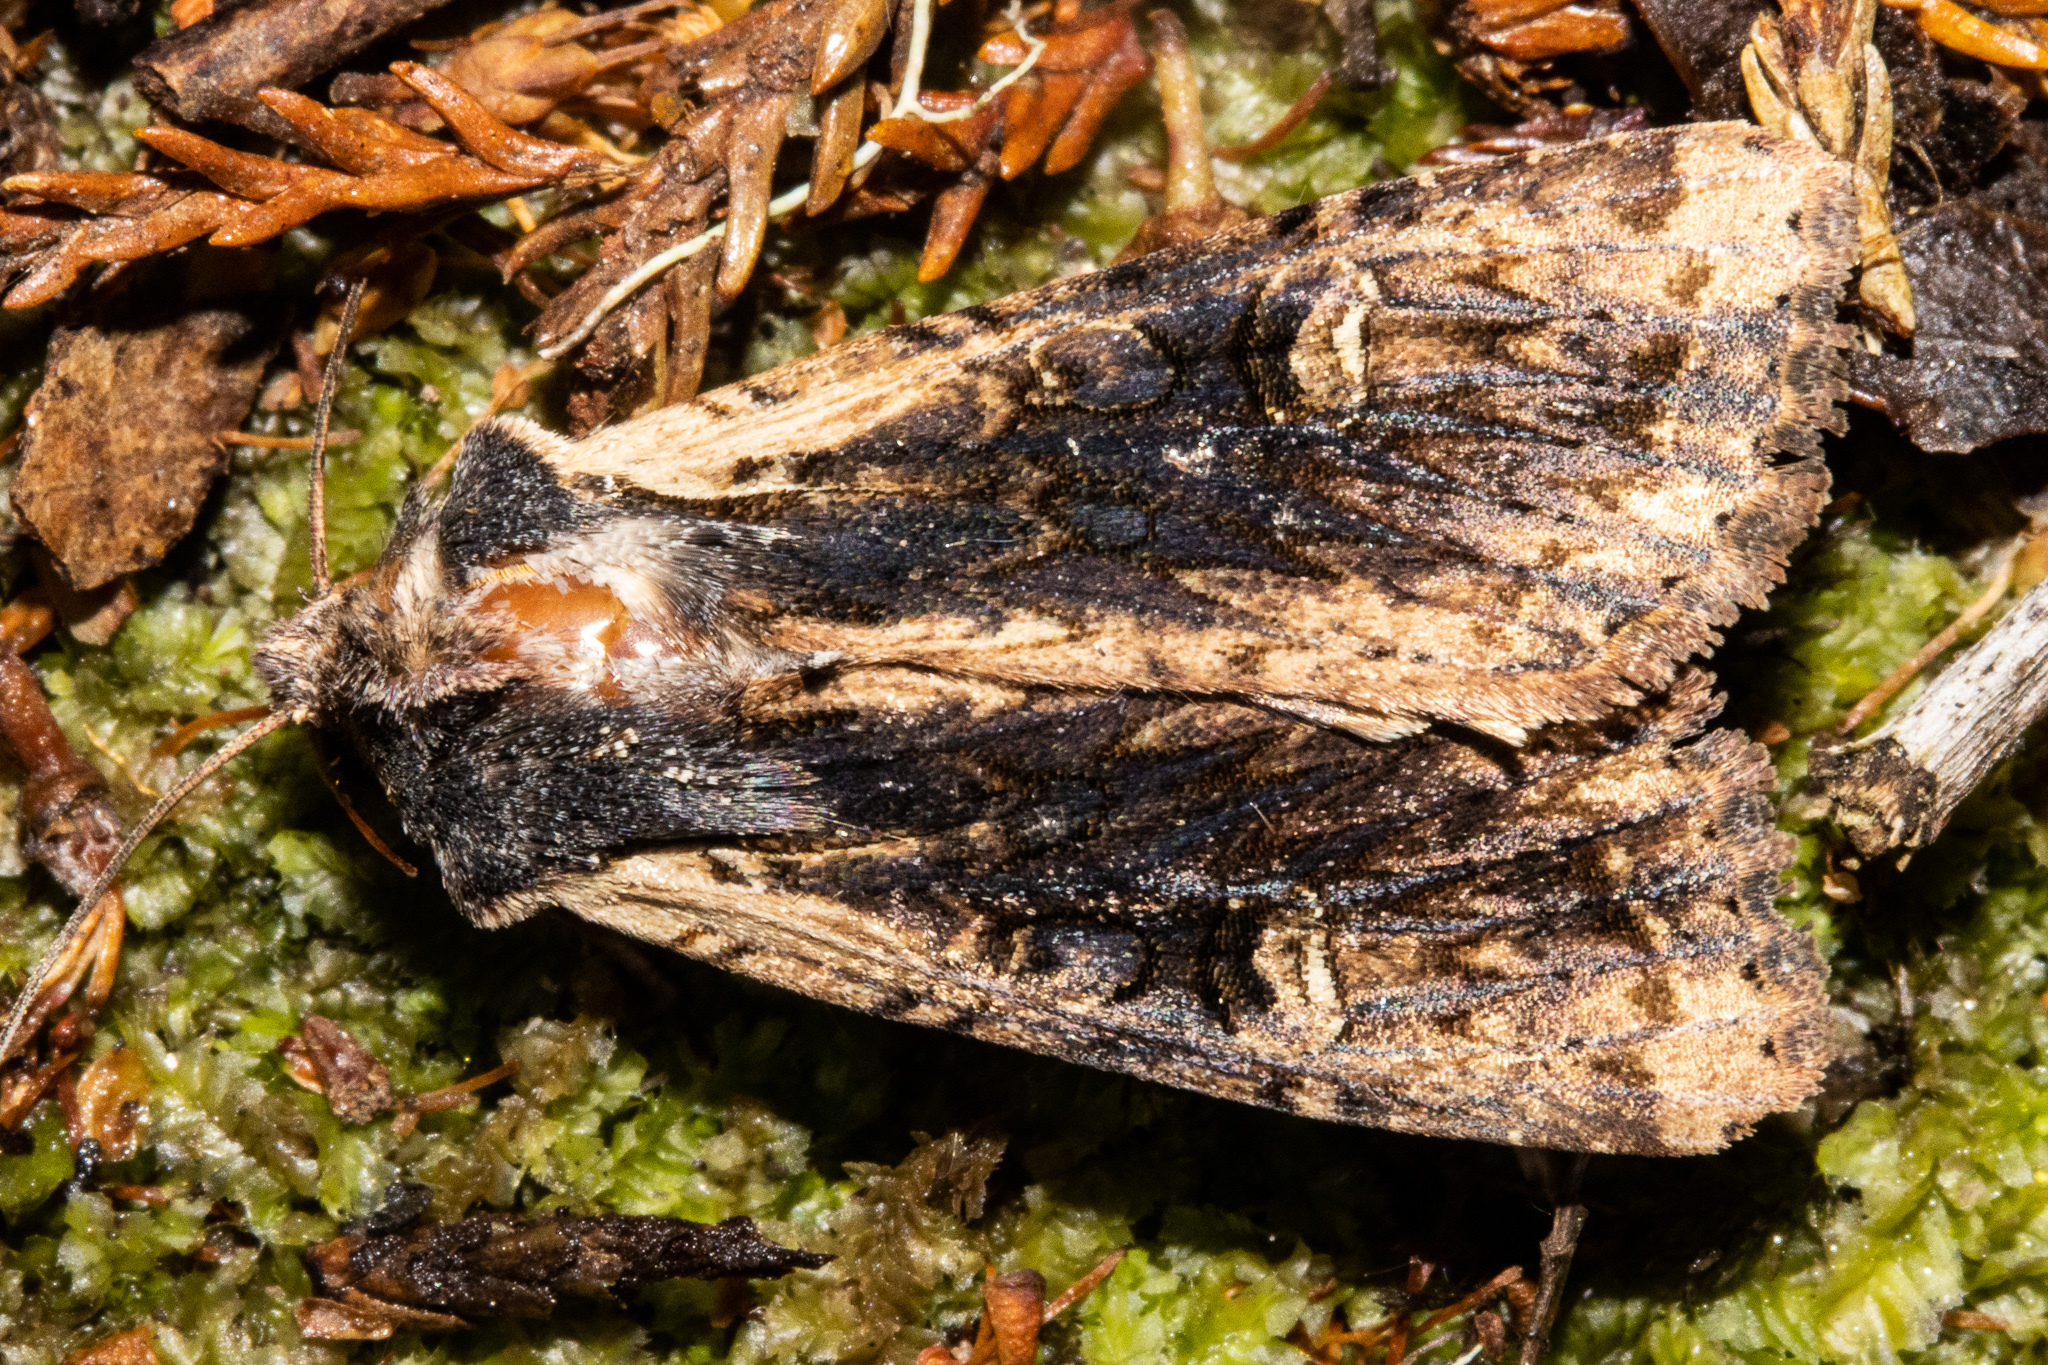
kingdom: Animalia
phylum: Arthropoda
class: Insecta
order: Lepidoptera
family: Noctuidae
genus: Ichneutica
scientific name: Ichneutica omoplaca
